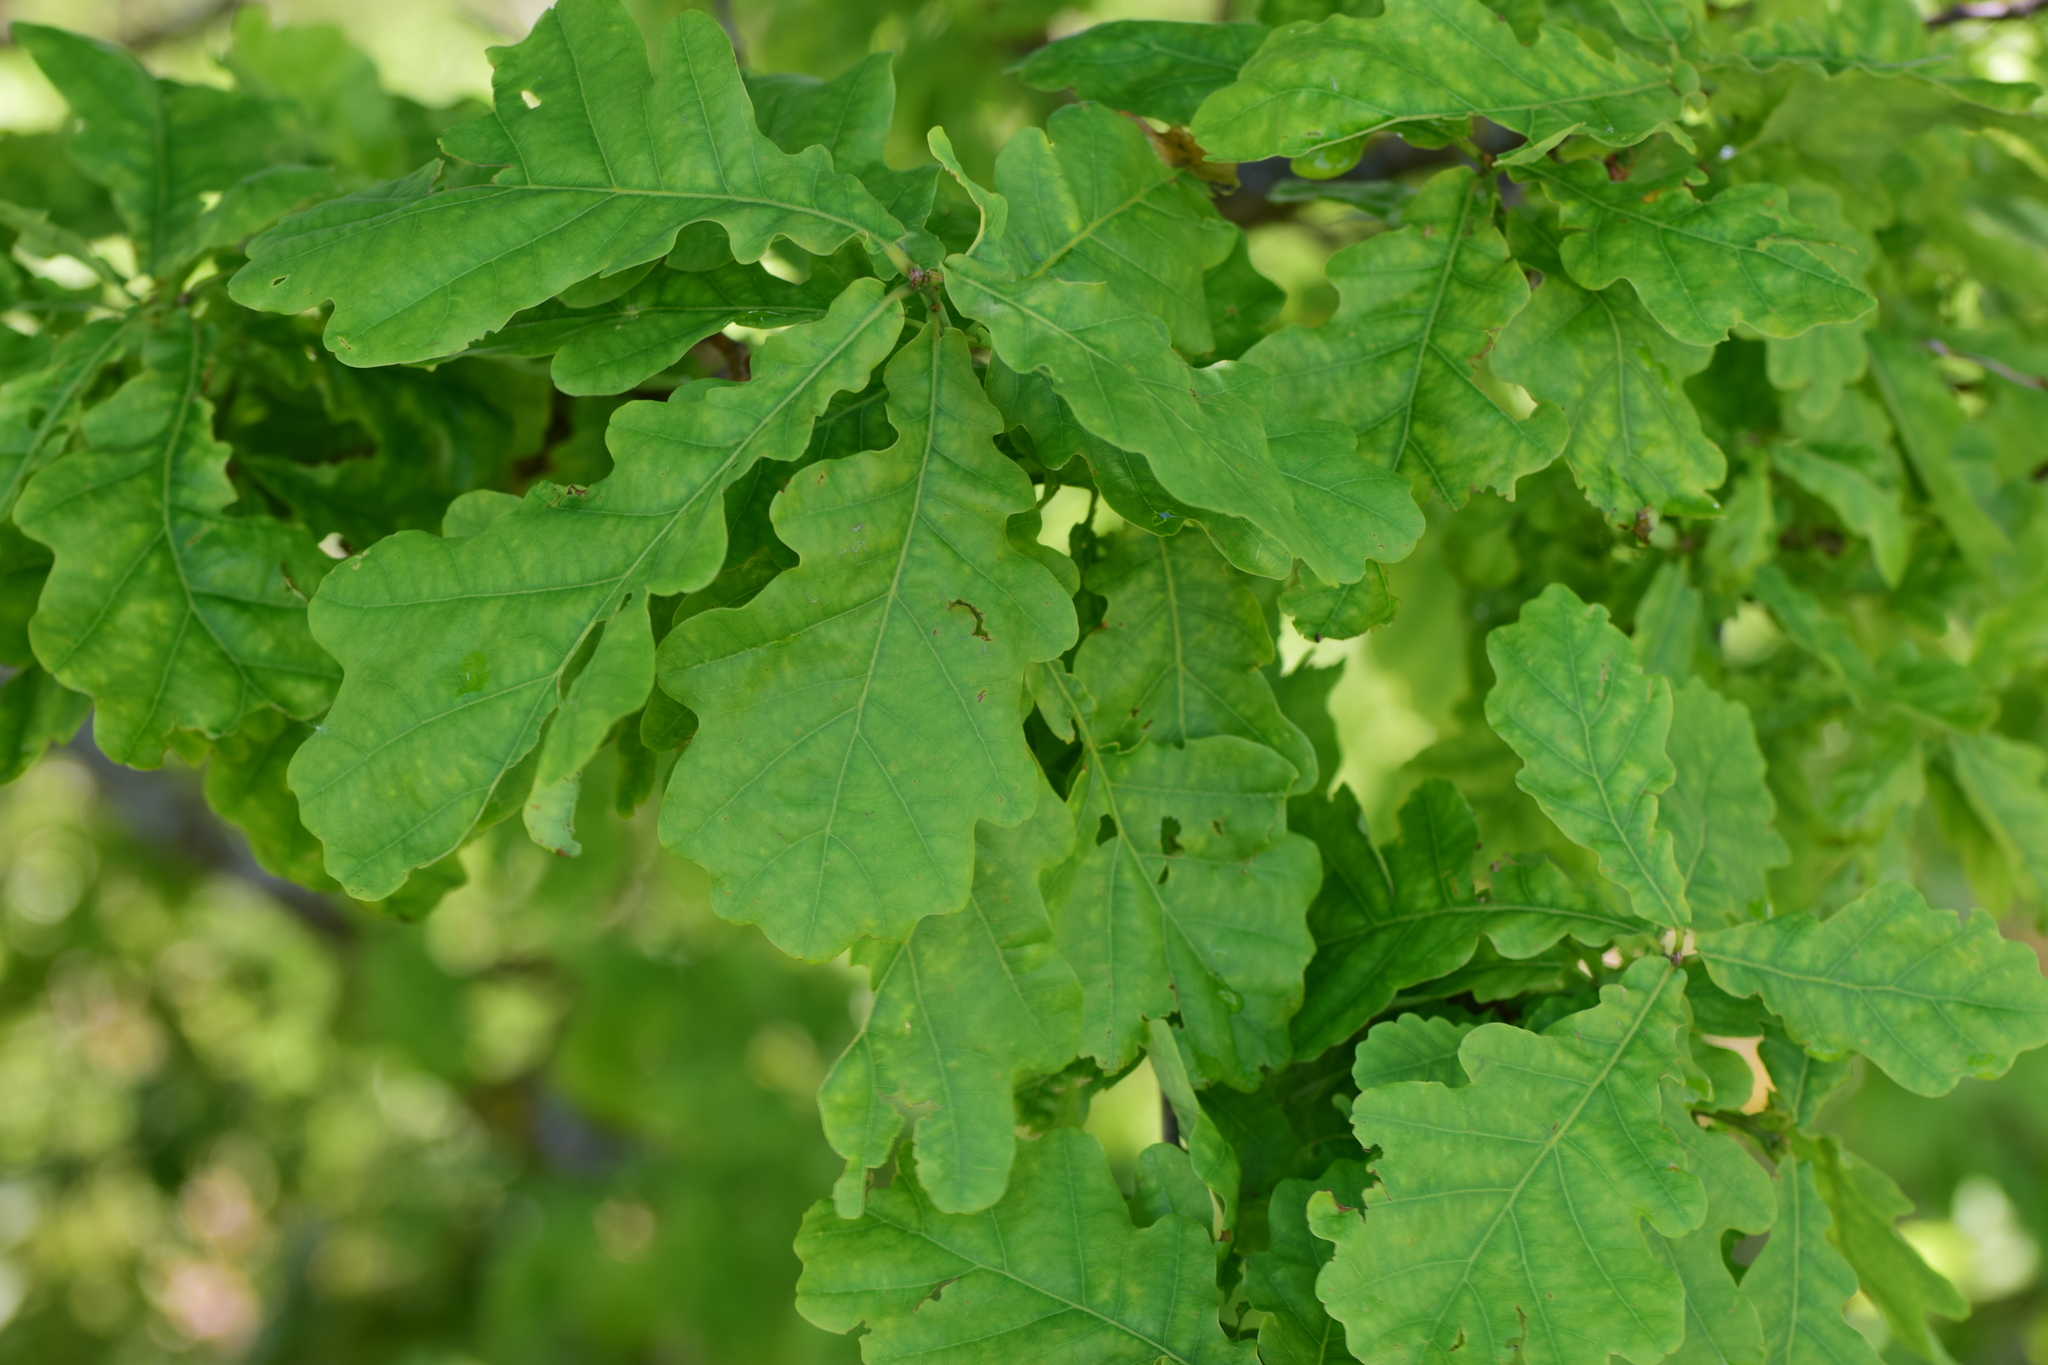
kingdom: Plantae
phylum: Tracheophyta
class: Magnoliopsida
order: Fagales
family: Fagaceae
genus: Quercus
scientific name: Quercus robur
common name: Pedunculate oak
